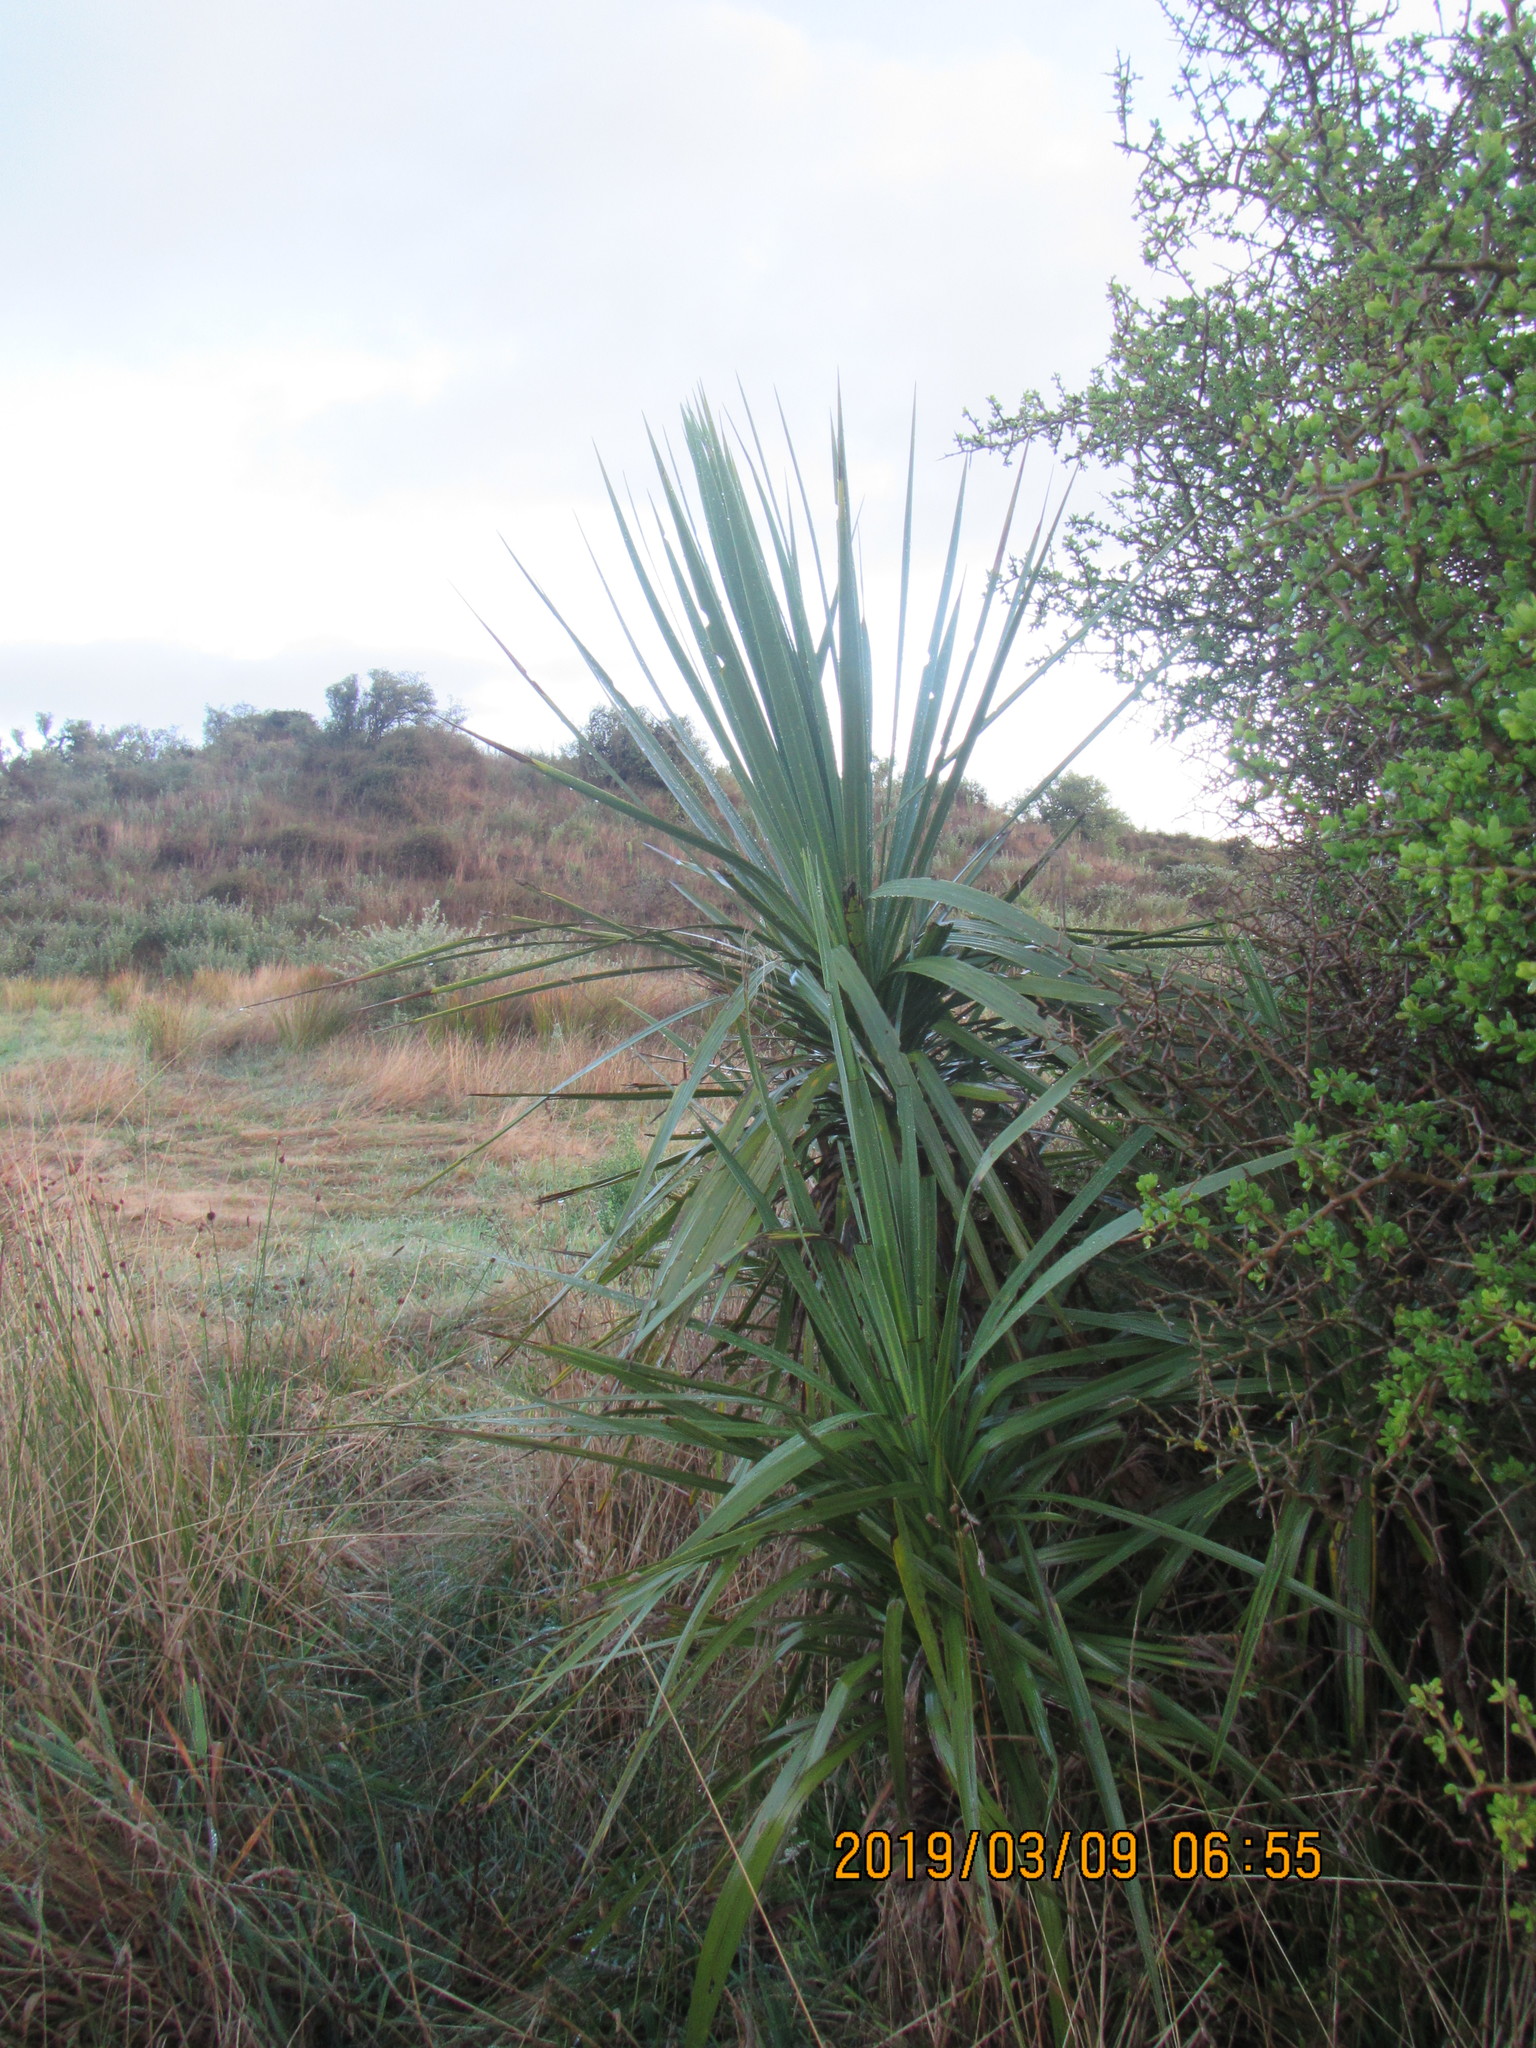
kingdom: Plantae
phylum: Tracheophyta
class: Liliopsida
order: Asparagales
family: Asparagaceae
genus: Cordyline
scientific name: Cordyline australis
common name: Cabbage-palm
